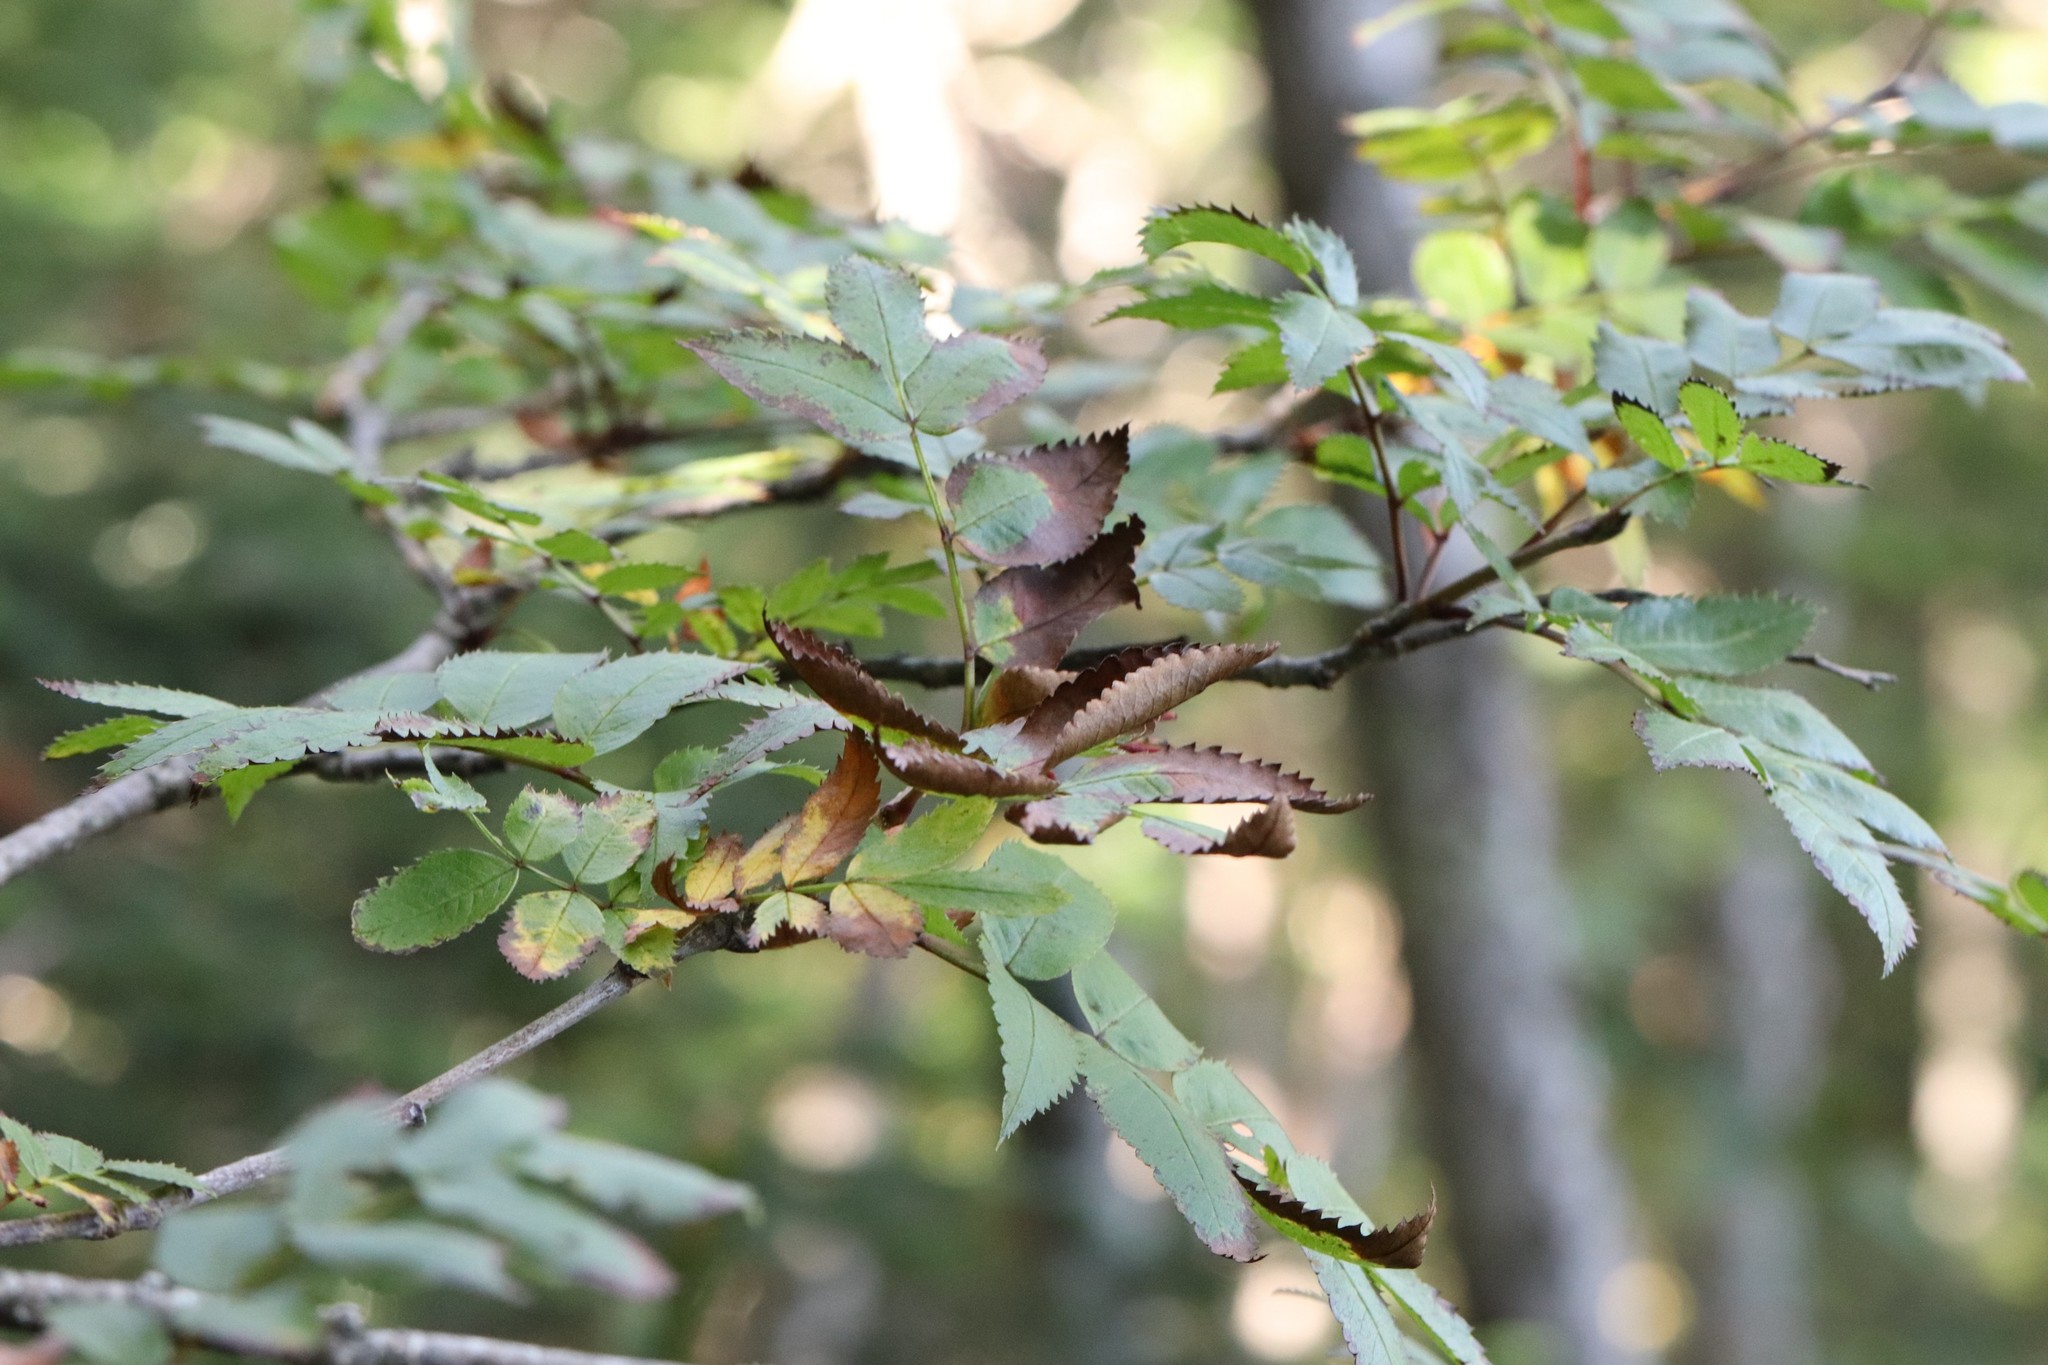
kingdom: Plantae
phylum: Tracheophyta
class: Magnoliopsida
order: Rosales
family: Rosaceae
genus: Sorbus
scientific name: Sorbus sambucifolia
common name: Siberian mountain-ash
